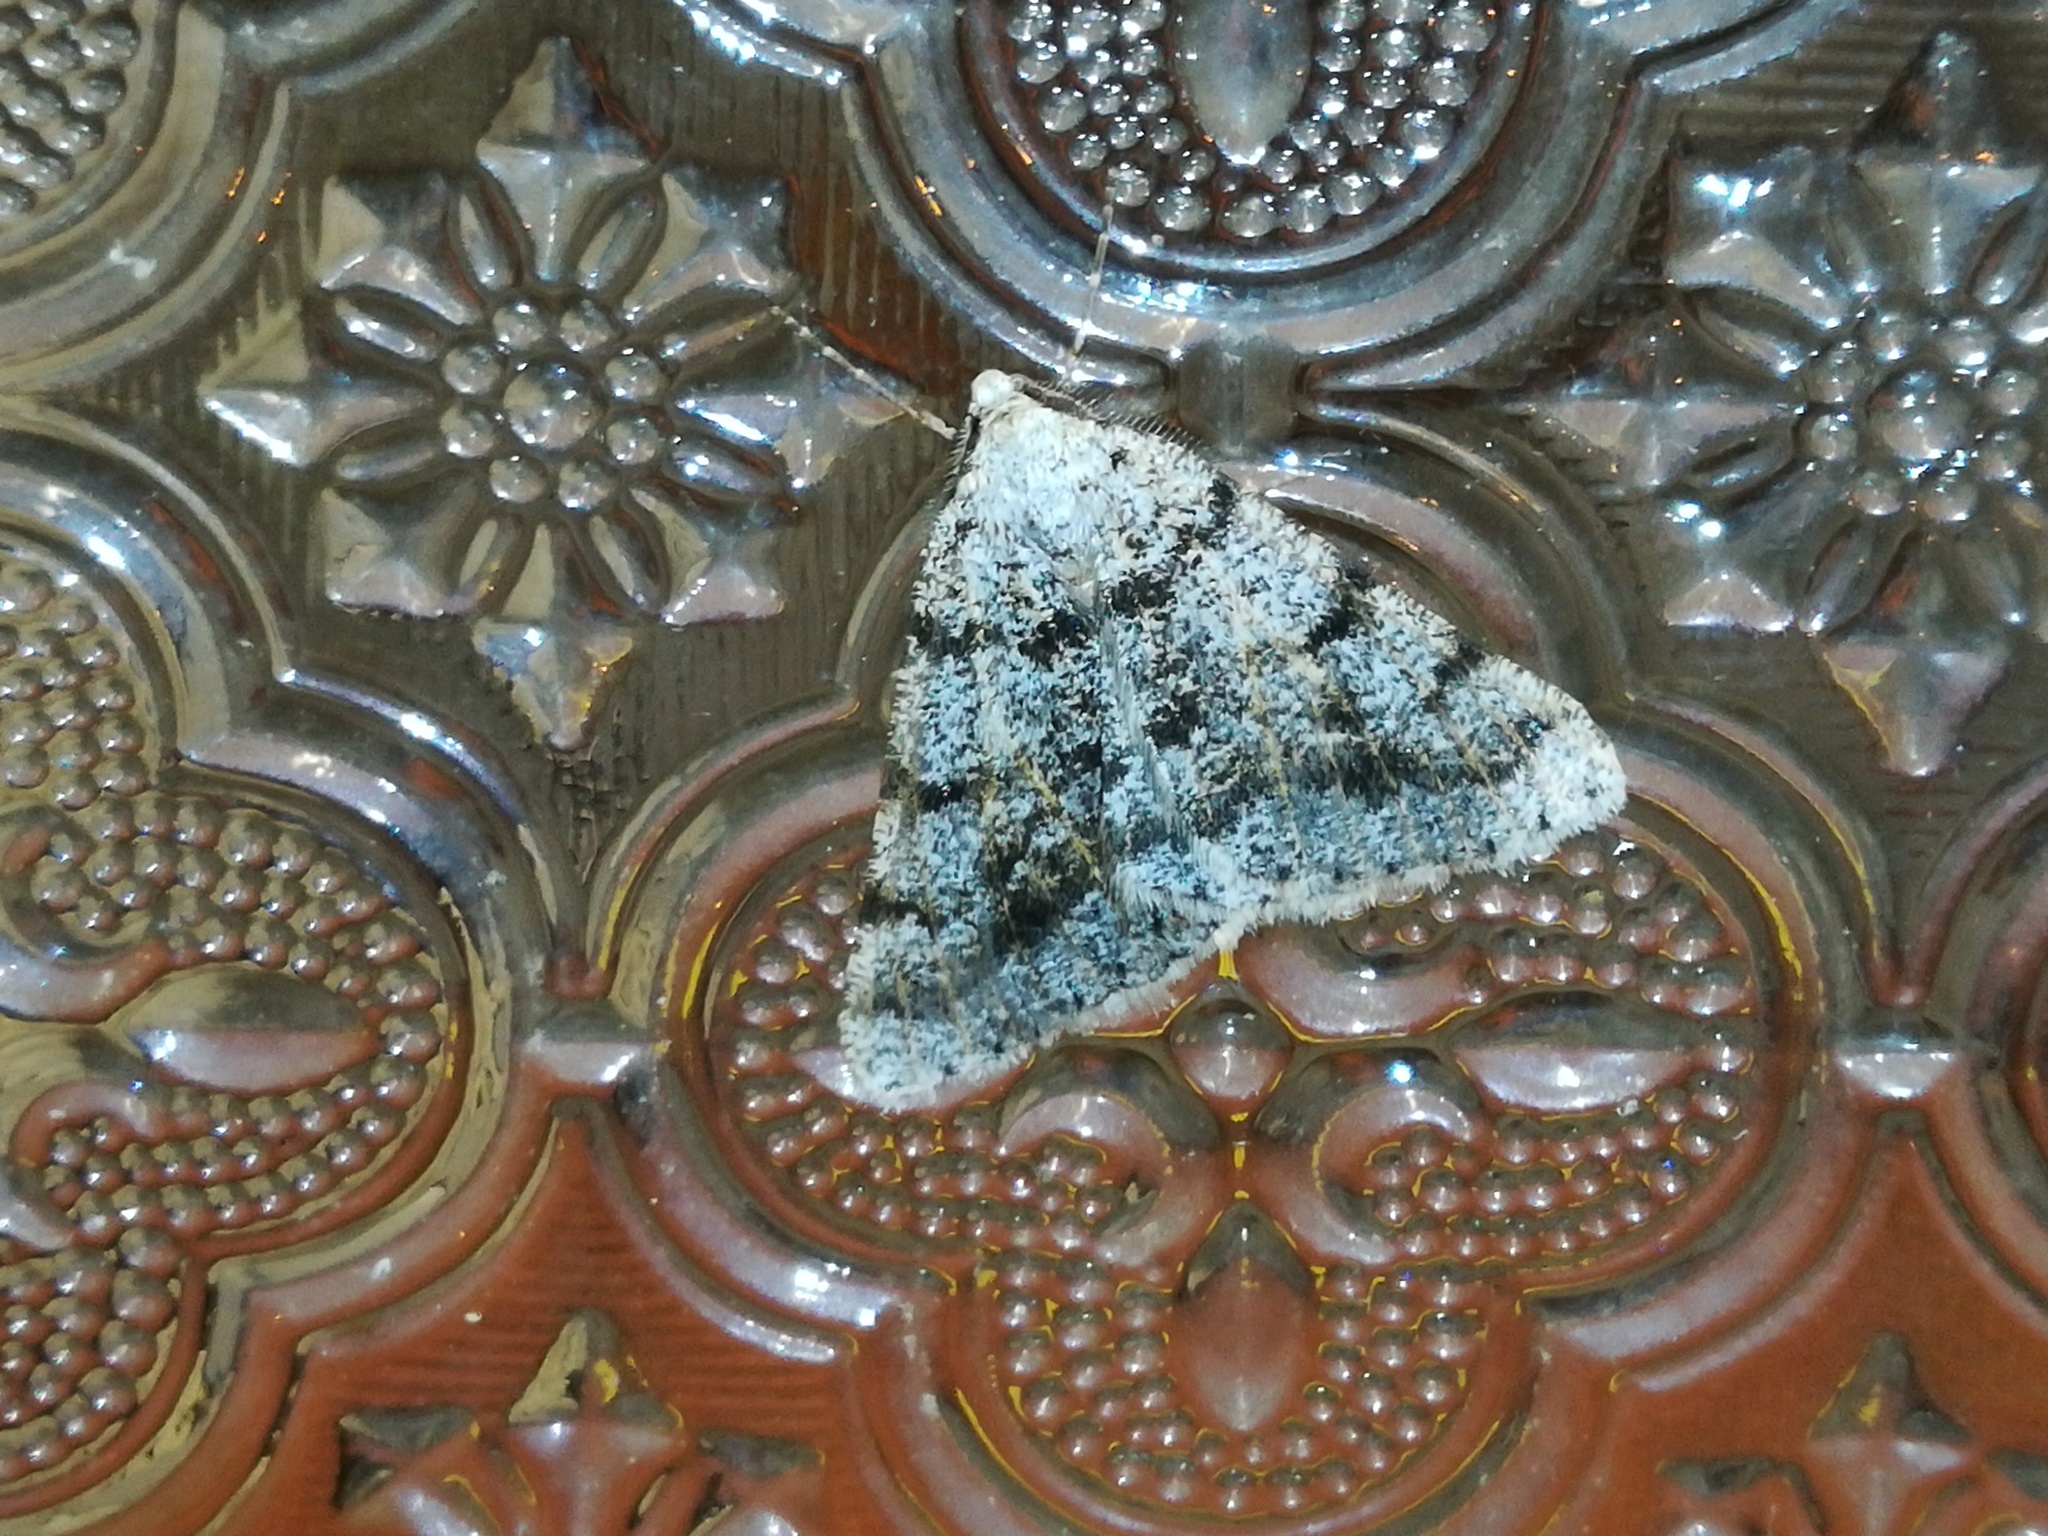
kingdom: Animalia
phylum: Arthropoda
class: Insecta
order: Lepidoptera
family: Geometridae
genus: Isturgia
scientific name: Isturgia miniosaria
